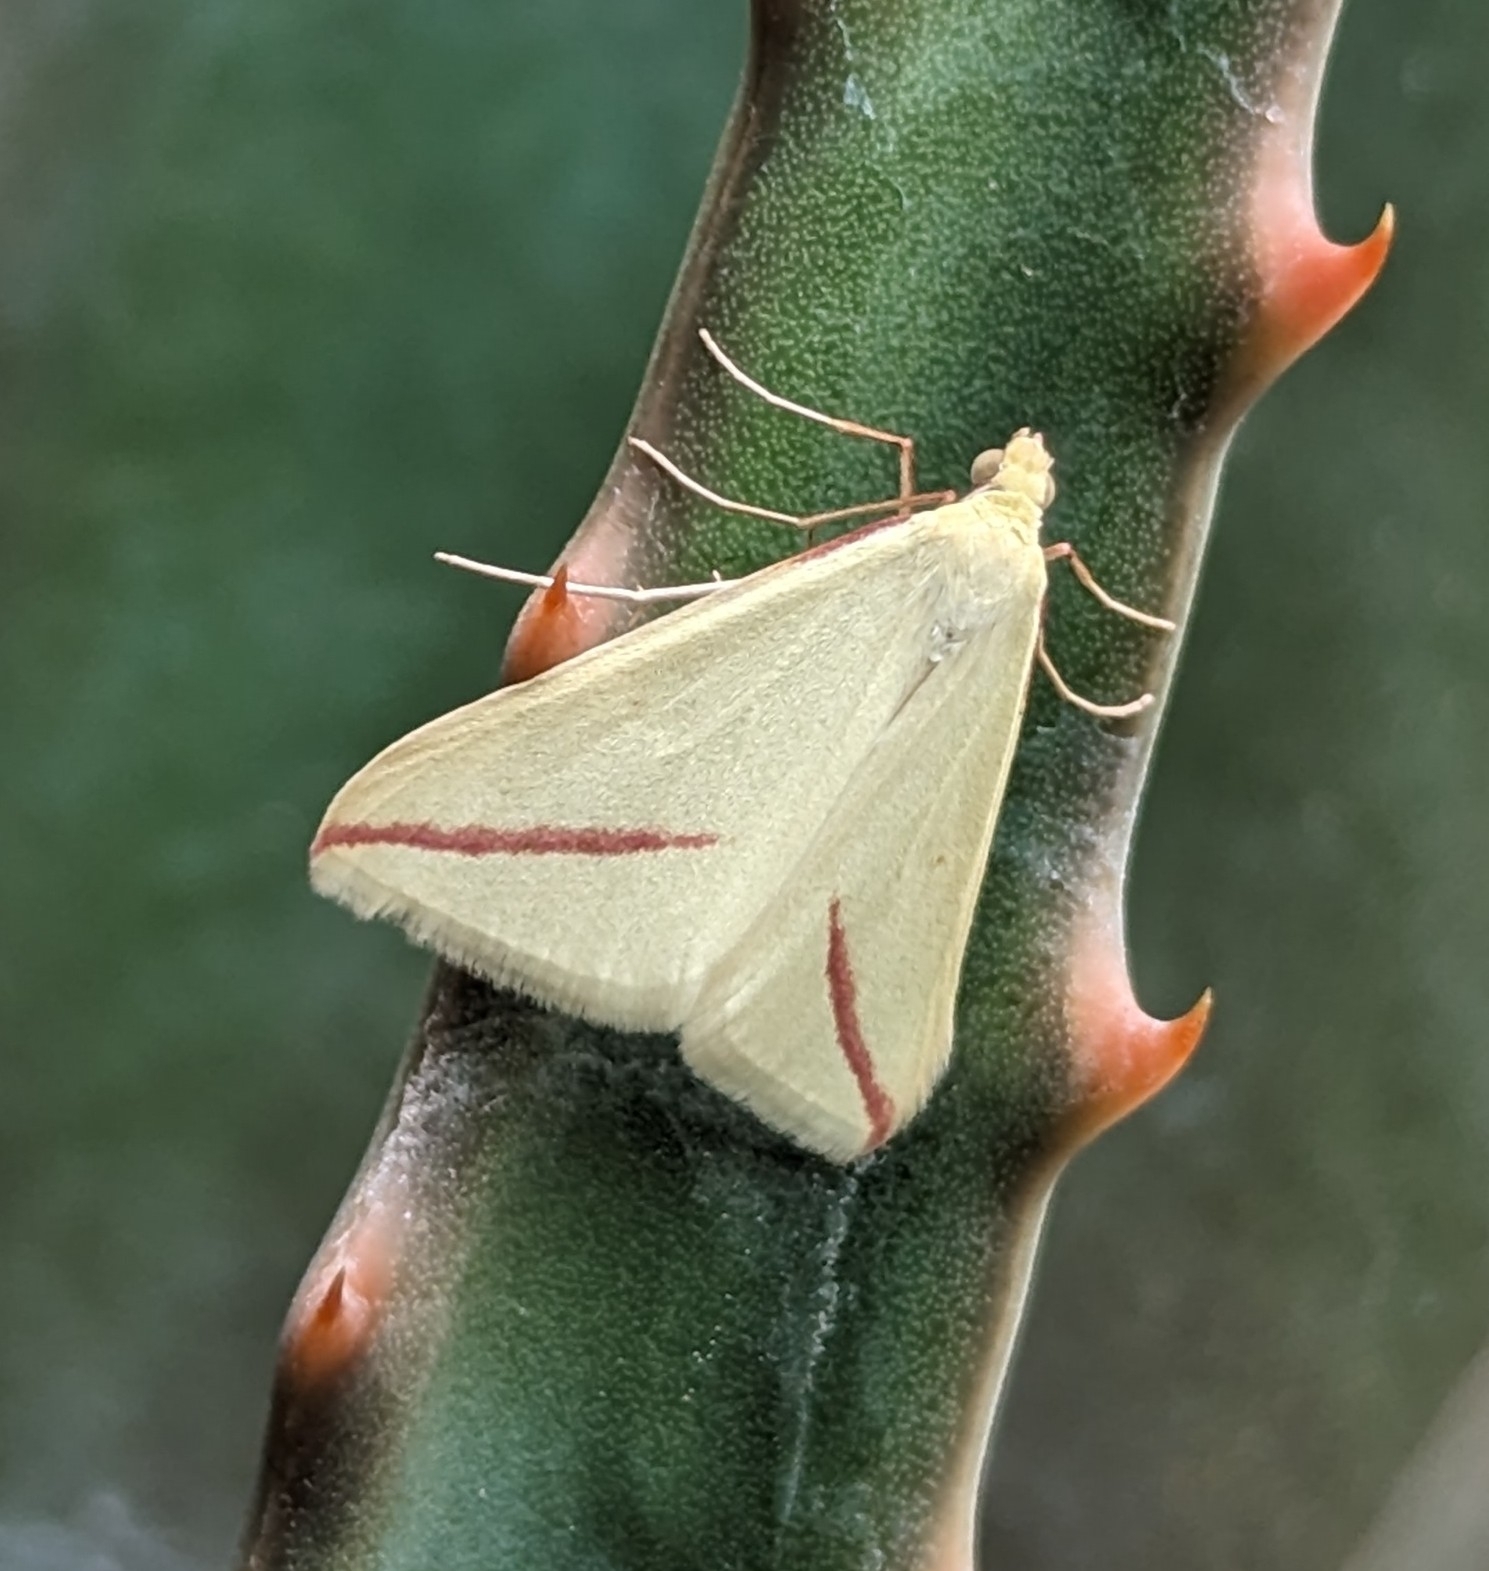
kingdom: Animalia
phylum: Arthropoda
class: Insecta
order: Lepidoptera
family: Geometridae
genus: Rhodometra
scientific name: Rhodometra sacraria
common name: Vestal
